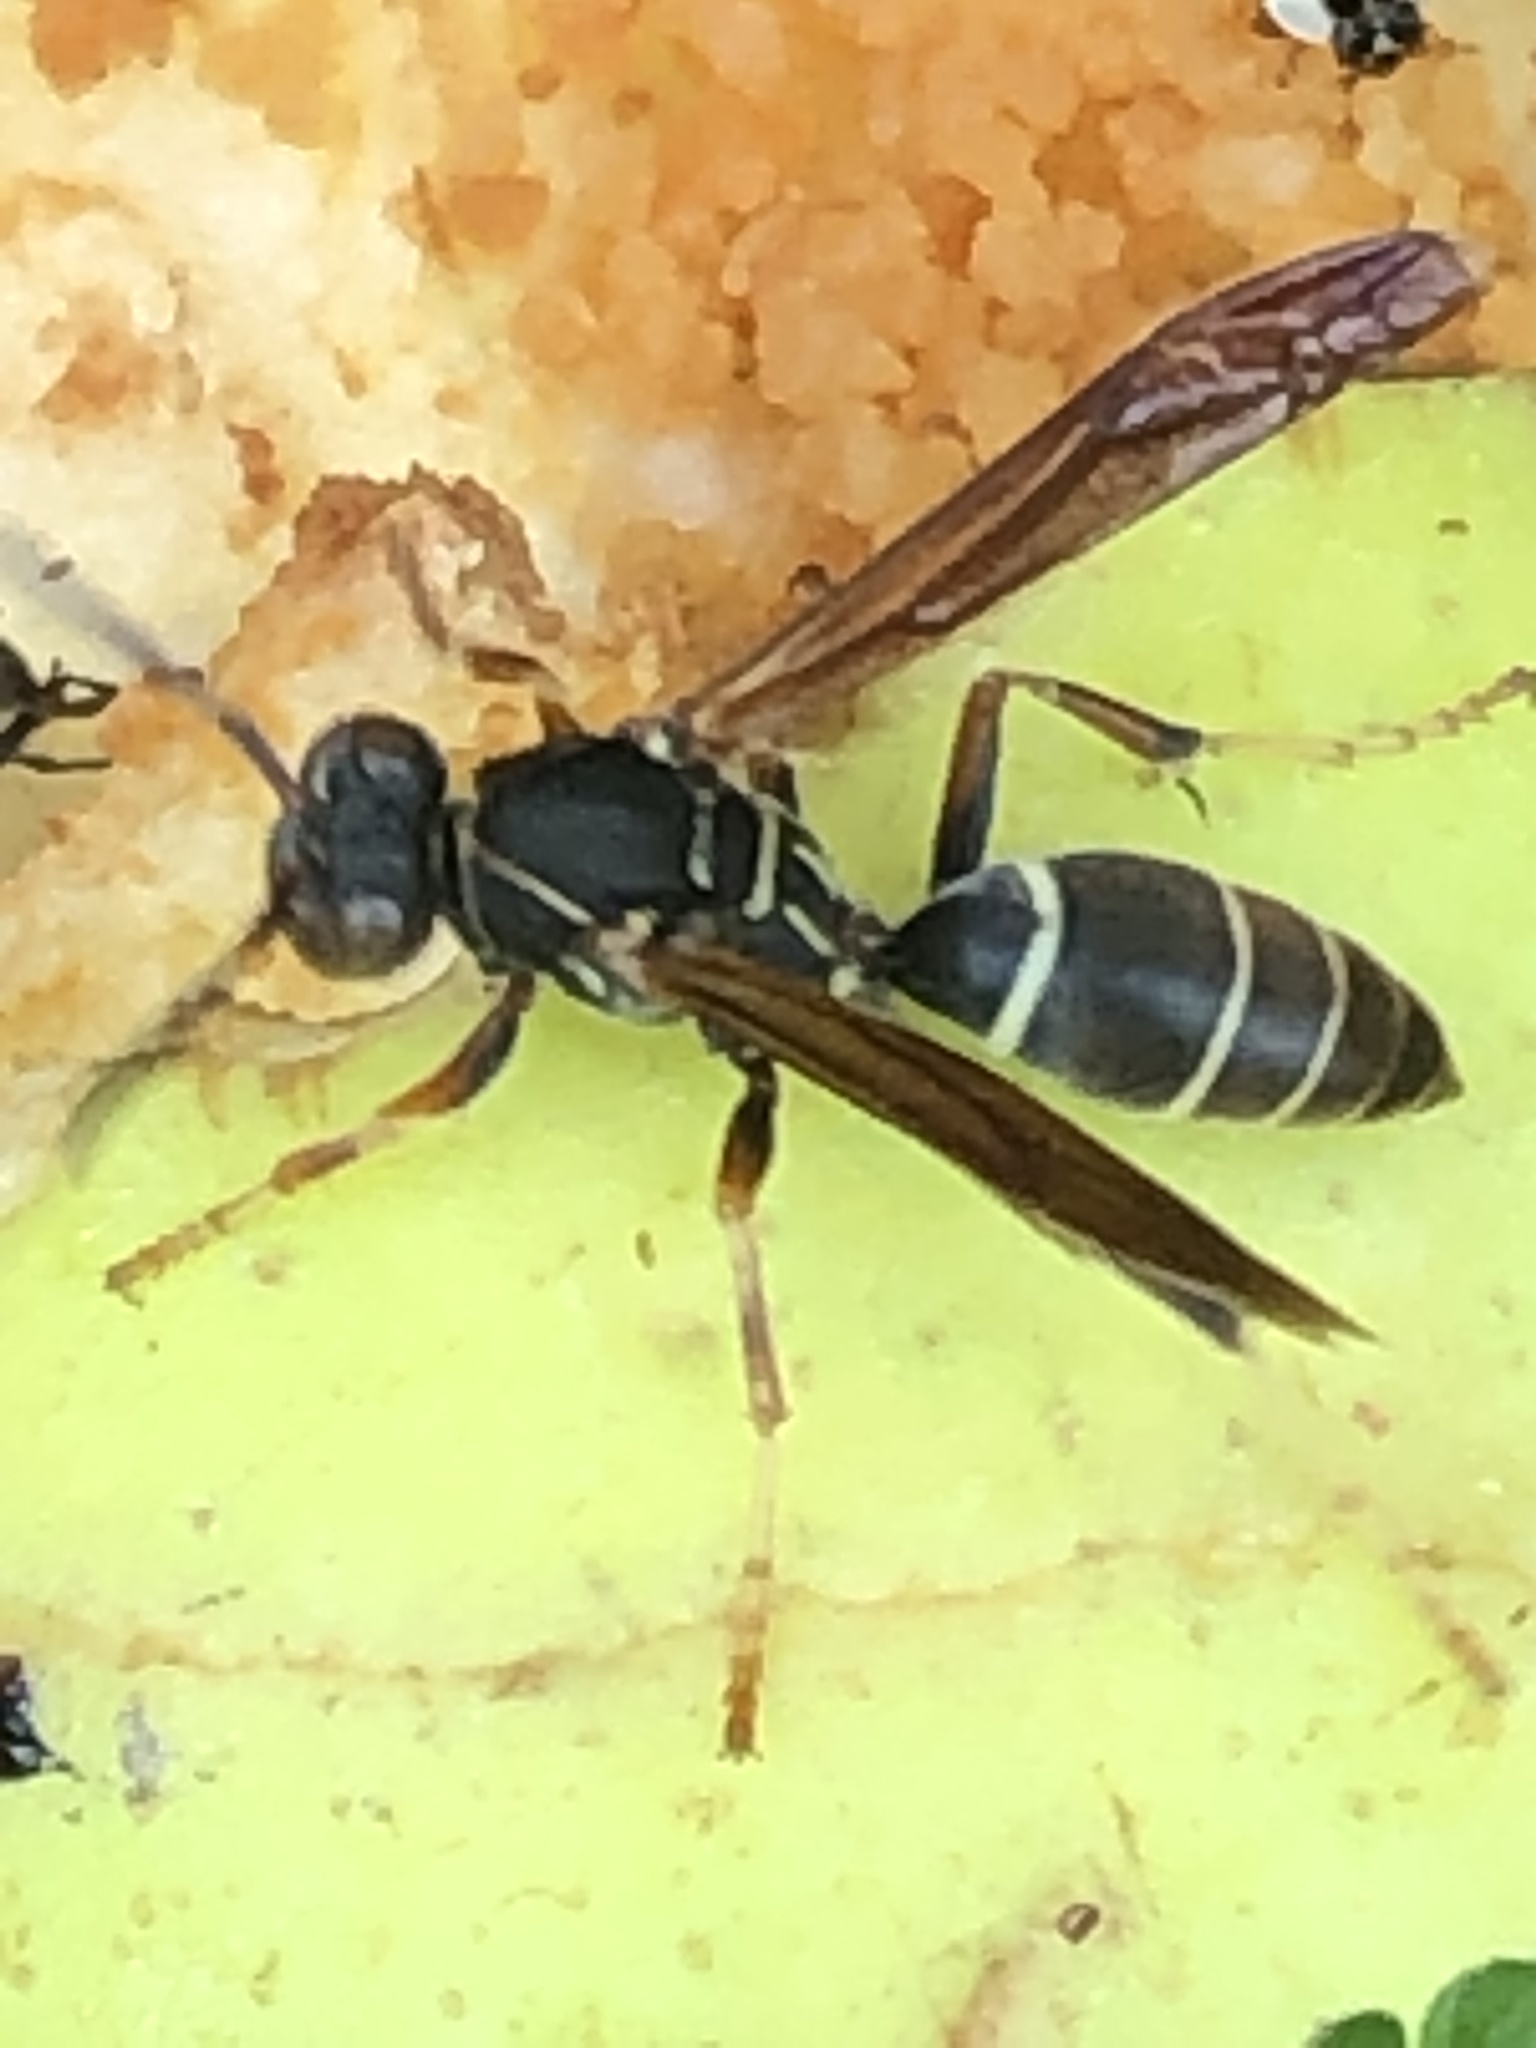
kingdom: Animalia
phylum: Arthropoda
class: Insecta
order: Hymenoptera
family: Eumenidae
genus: Polistes
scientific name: Polistes fuscatus
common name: Dark paper wasp
